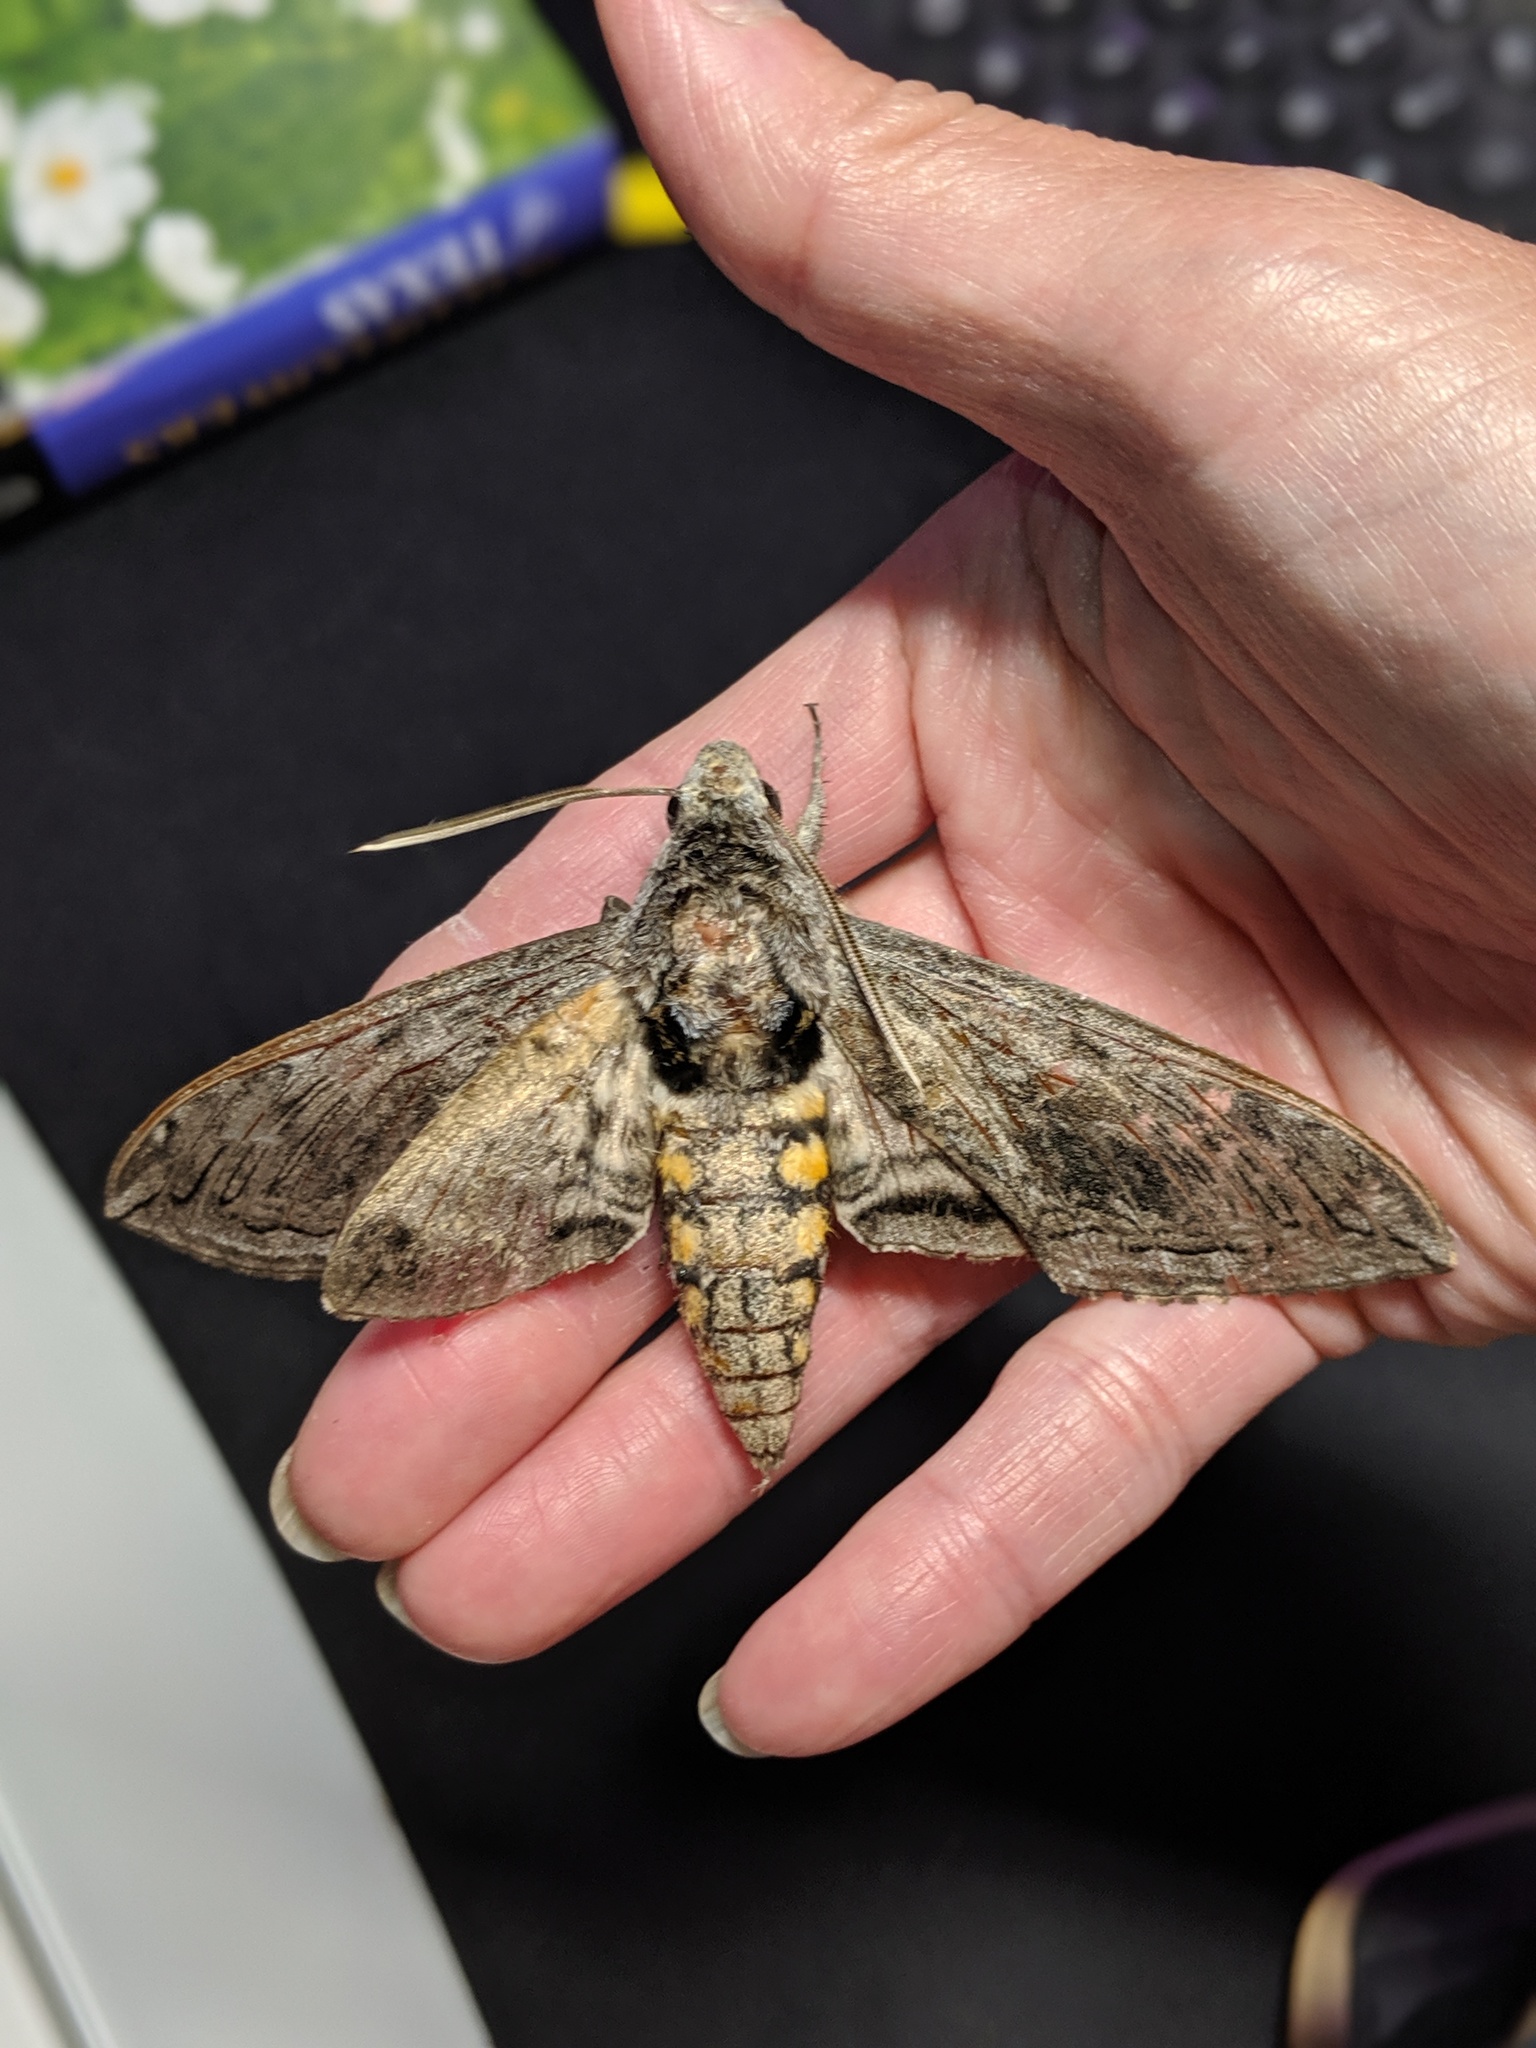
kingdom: Animalia
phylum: Arthropoda
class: Insecta
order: Lepidoptera
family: Sphingidae
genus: Manduca
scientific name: Manduca quinquemaculatus
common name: Five-spotted hawk-moth
